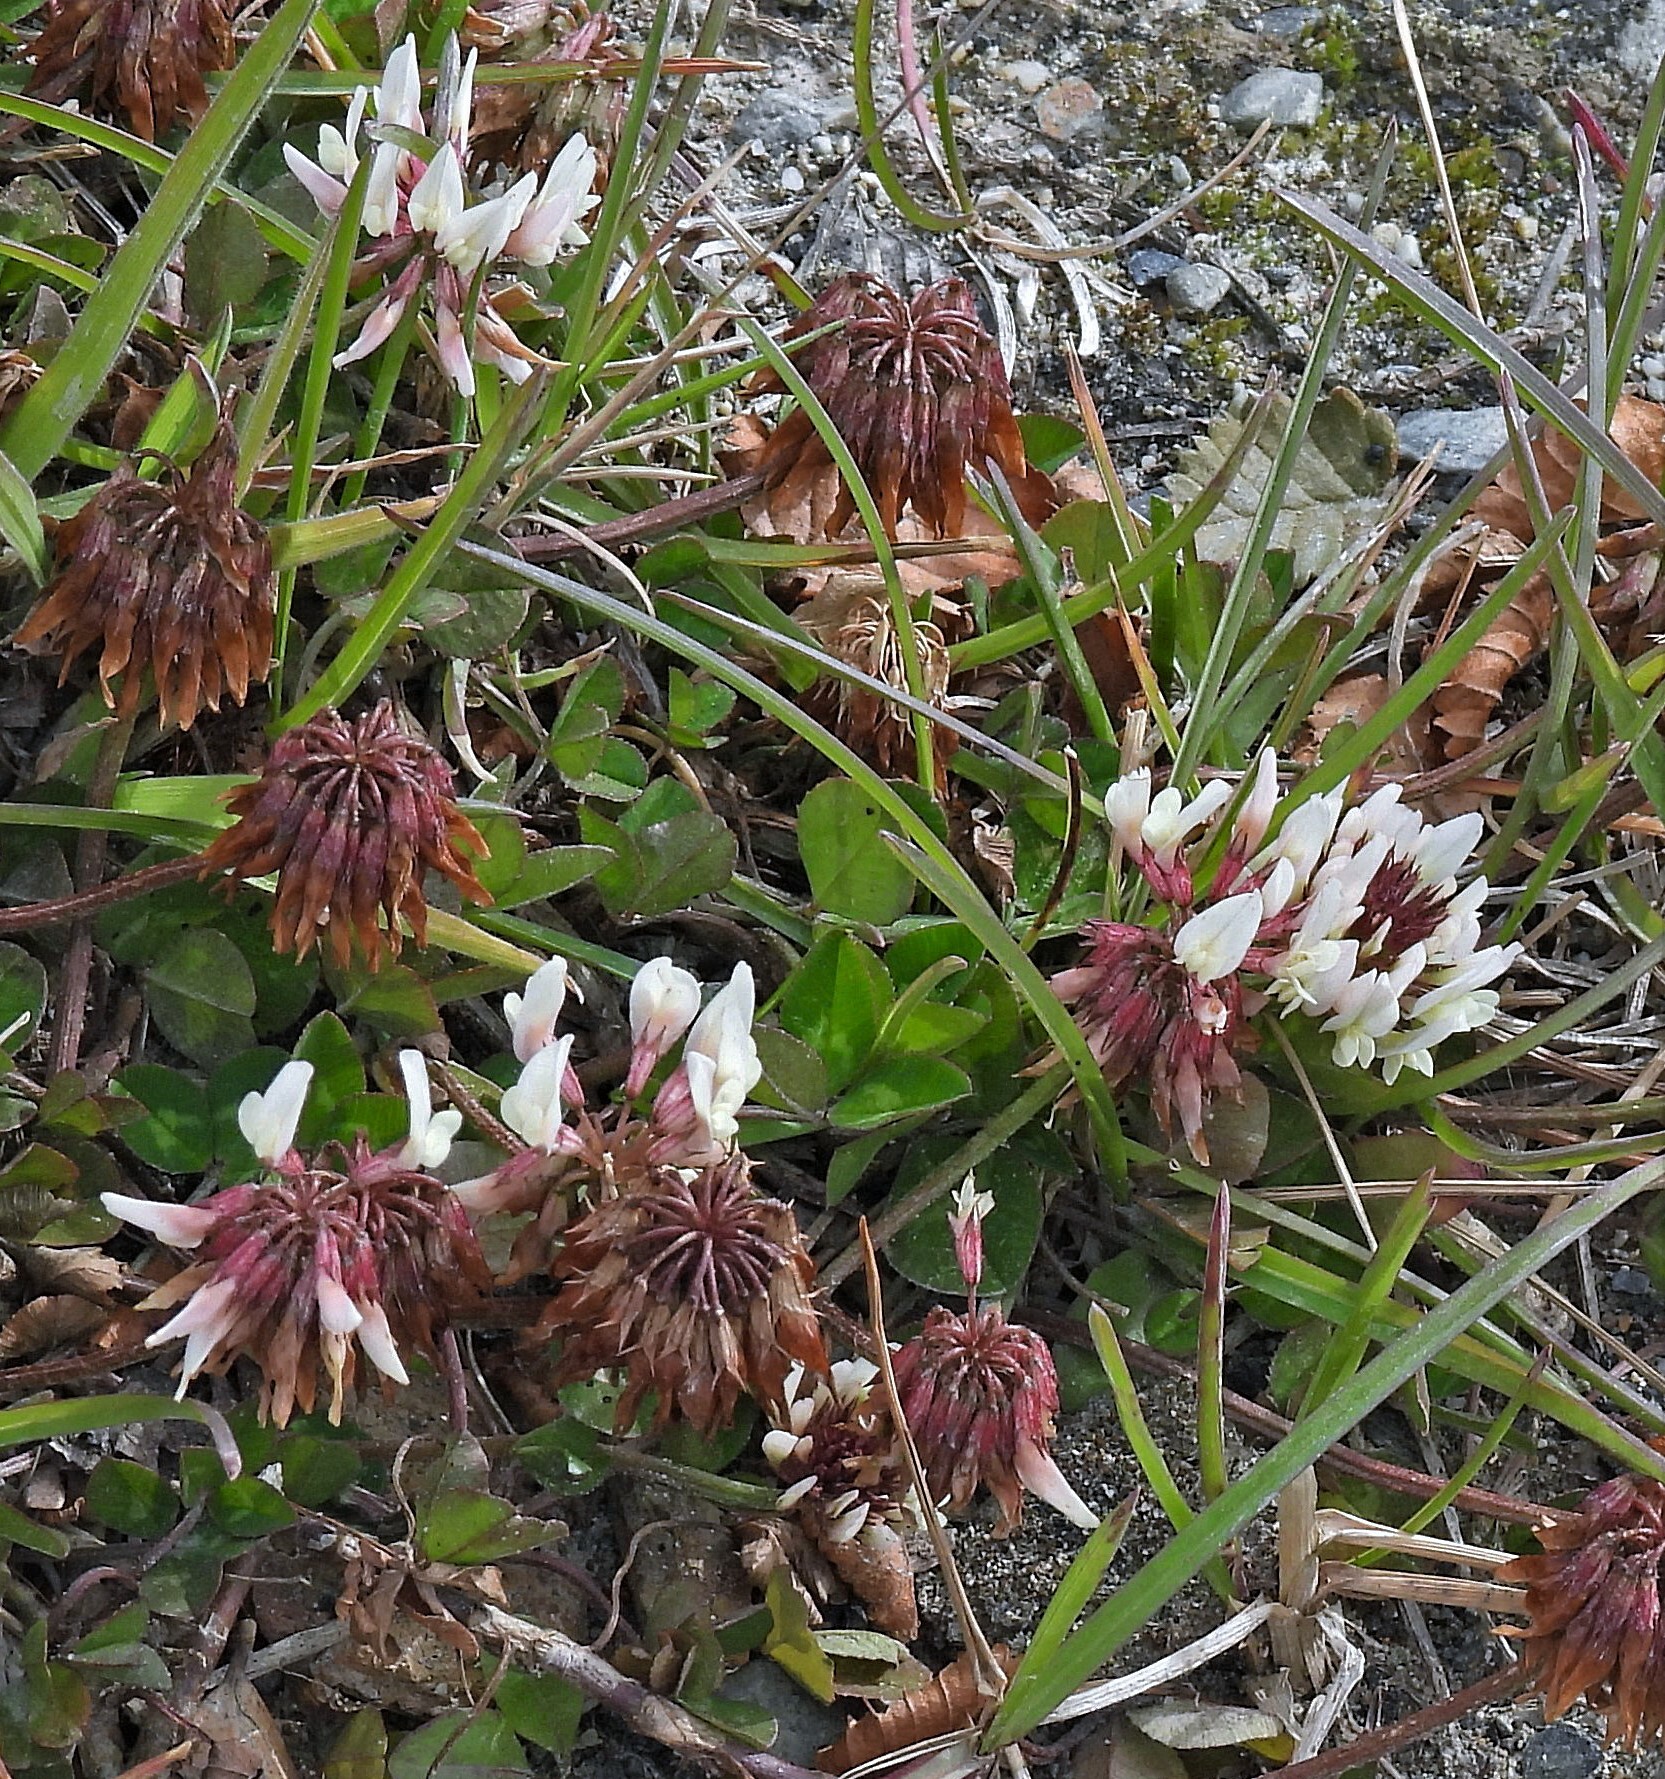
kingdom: Plantae
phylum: Tracheophyta
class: Magnoliopsida
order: Fabales
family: Fabaceae
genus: Trifolium
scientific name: Trifolium repens
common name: White clover
